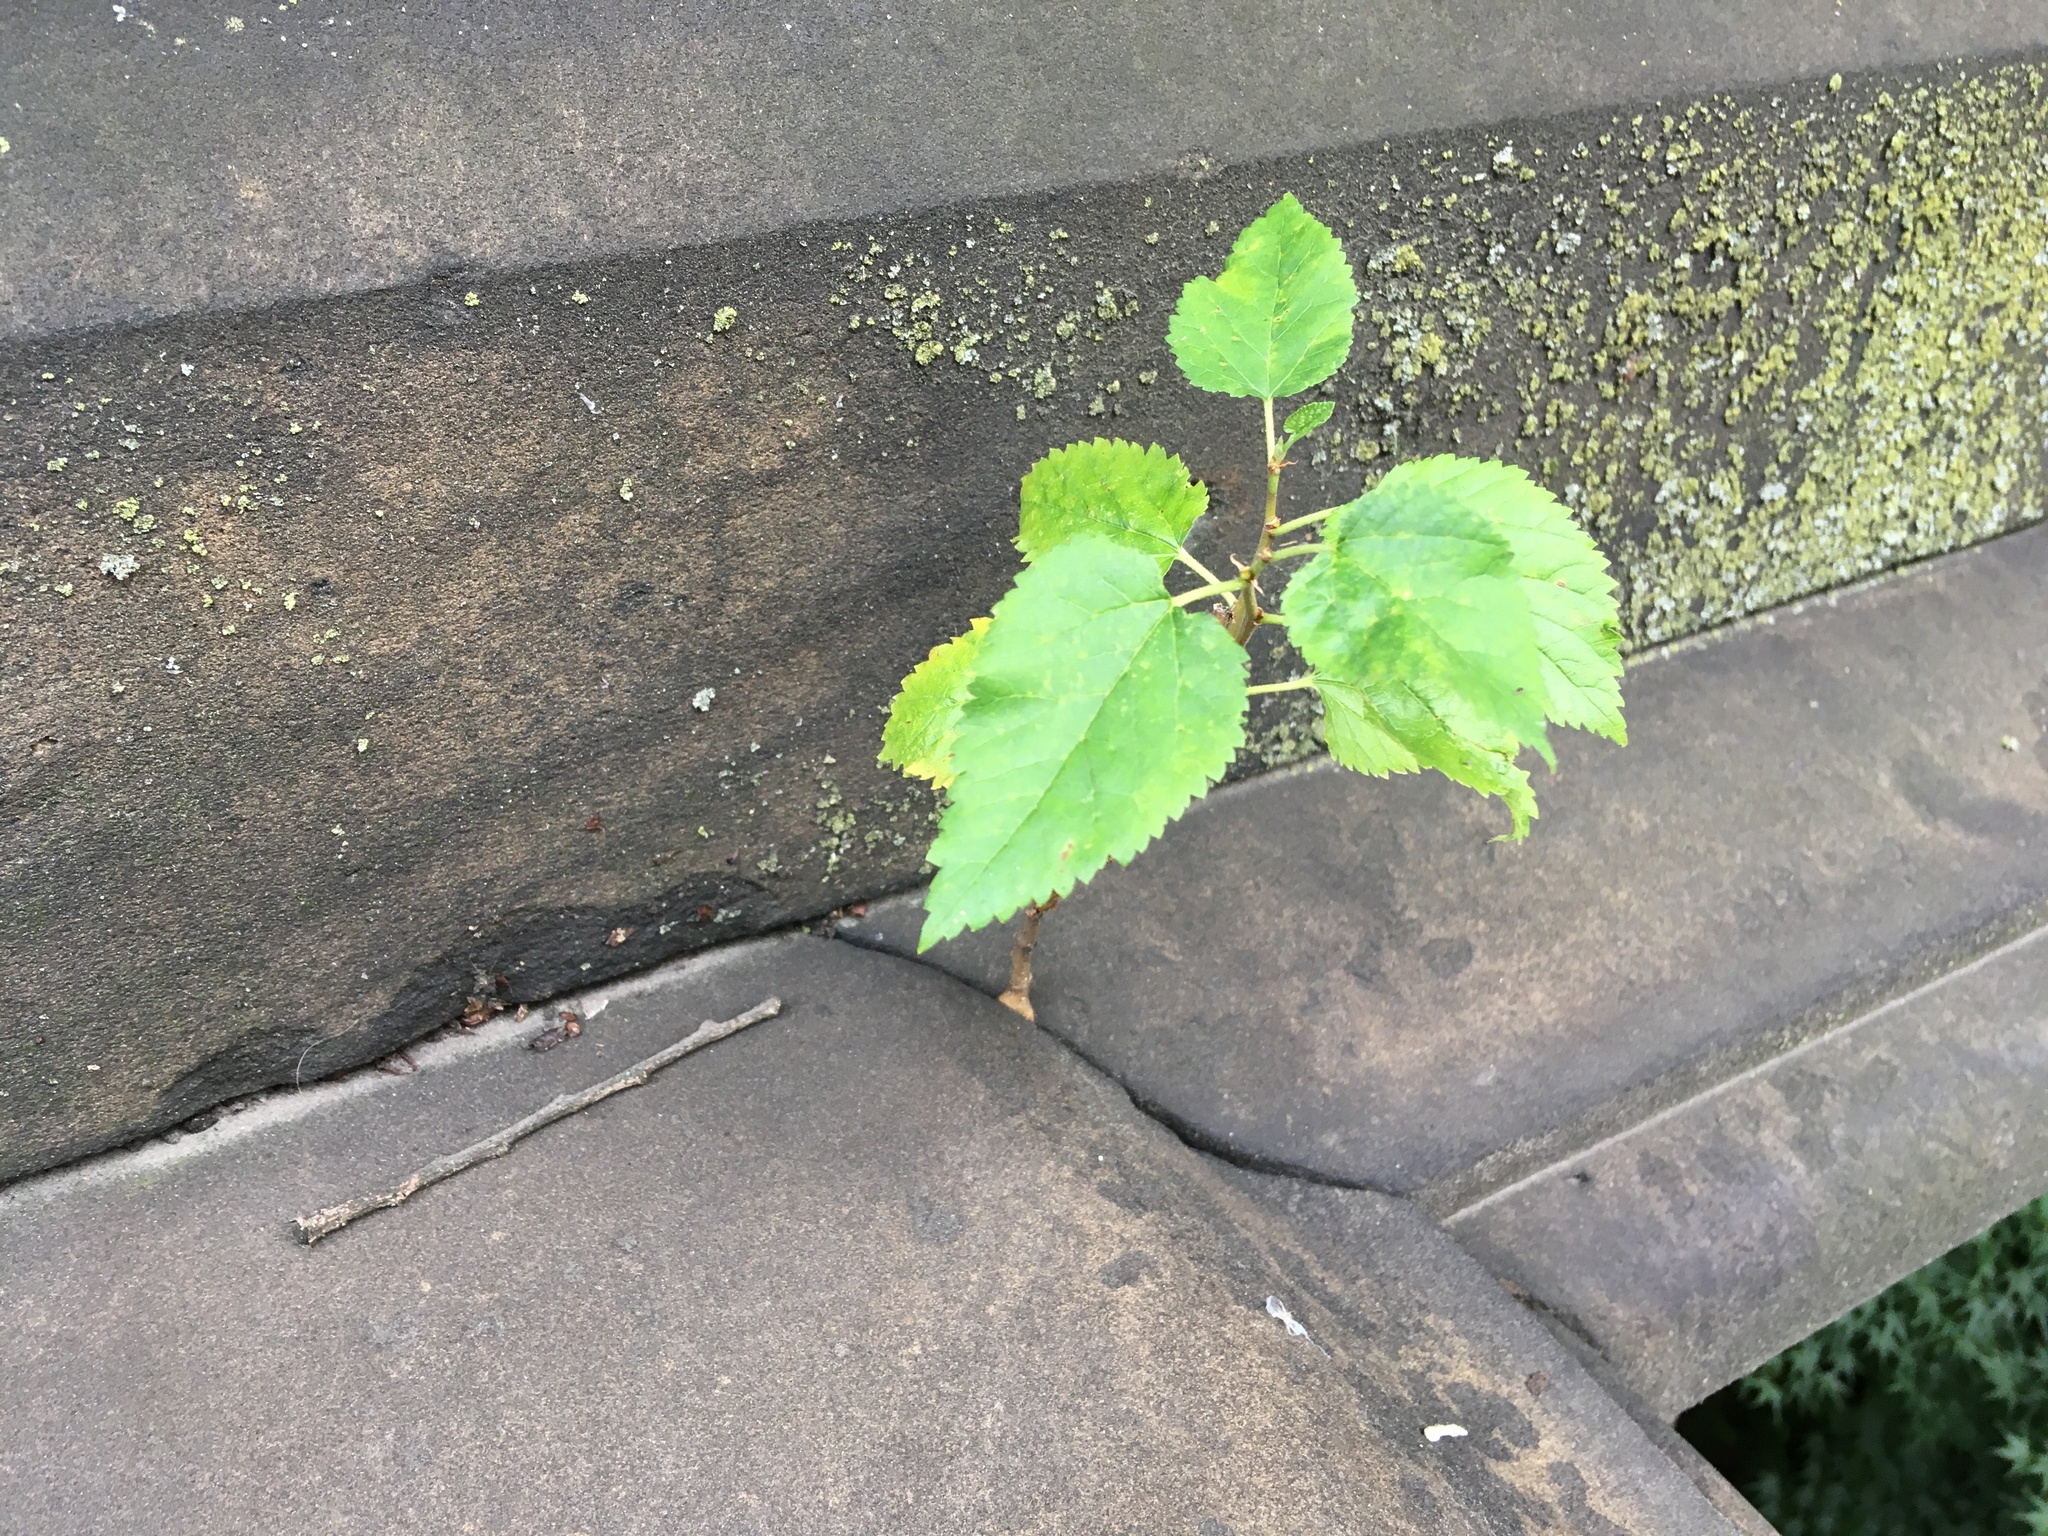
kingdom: Plantae
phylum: Tracheophyta
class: Magnoliopsida
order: Rosales
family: Moraceae
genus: Morus
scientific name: Morus alba
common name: White mulberry
